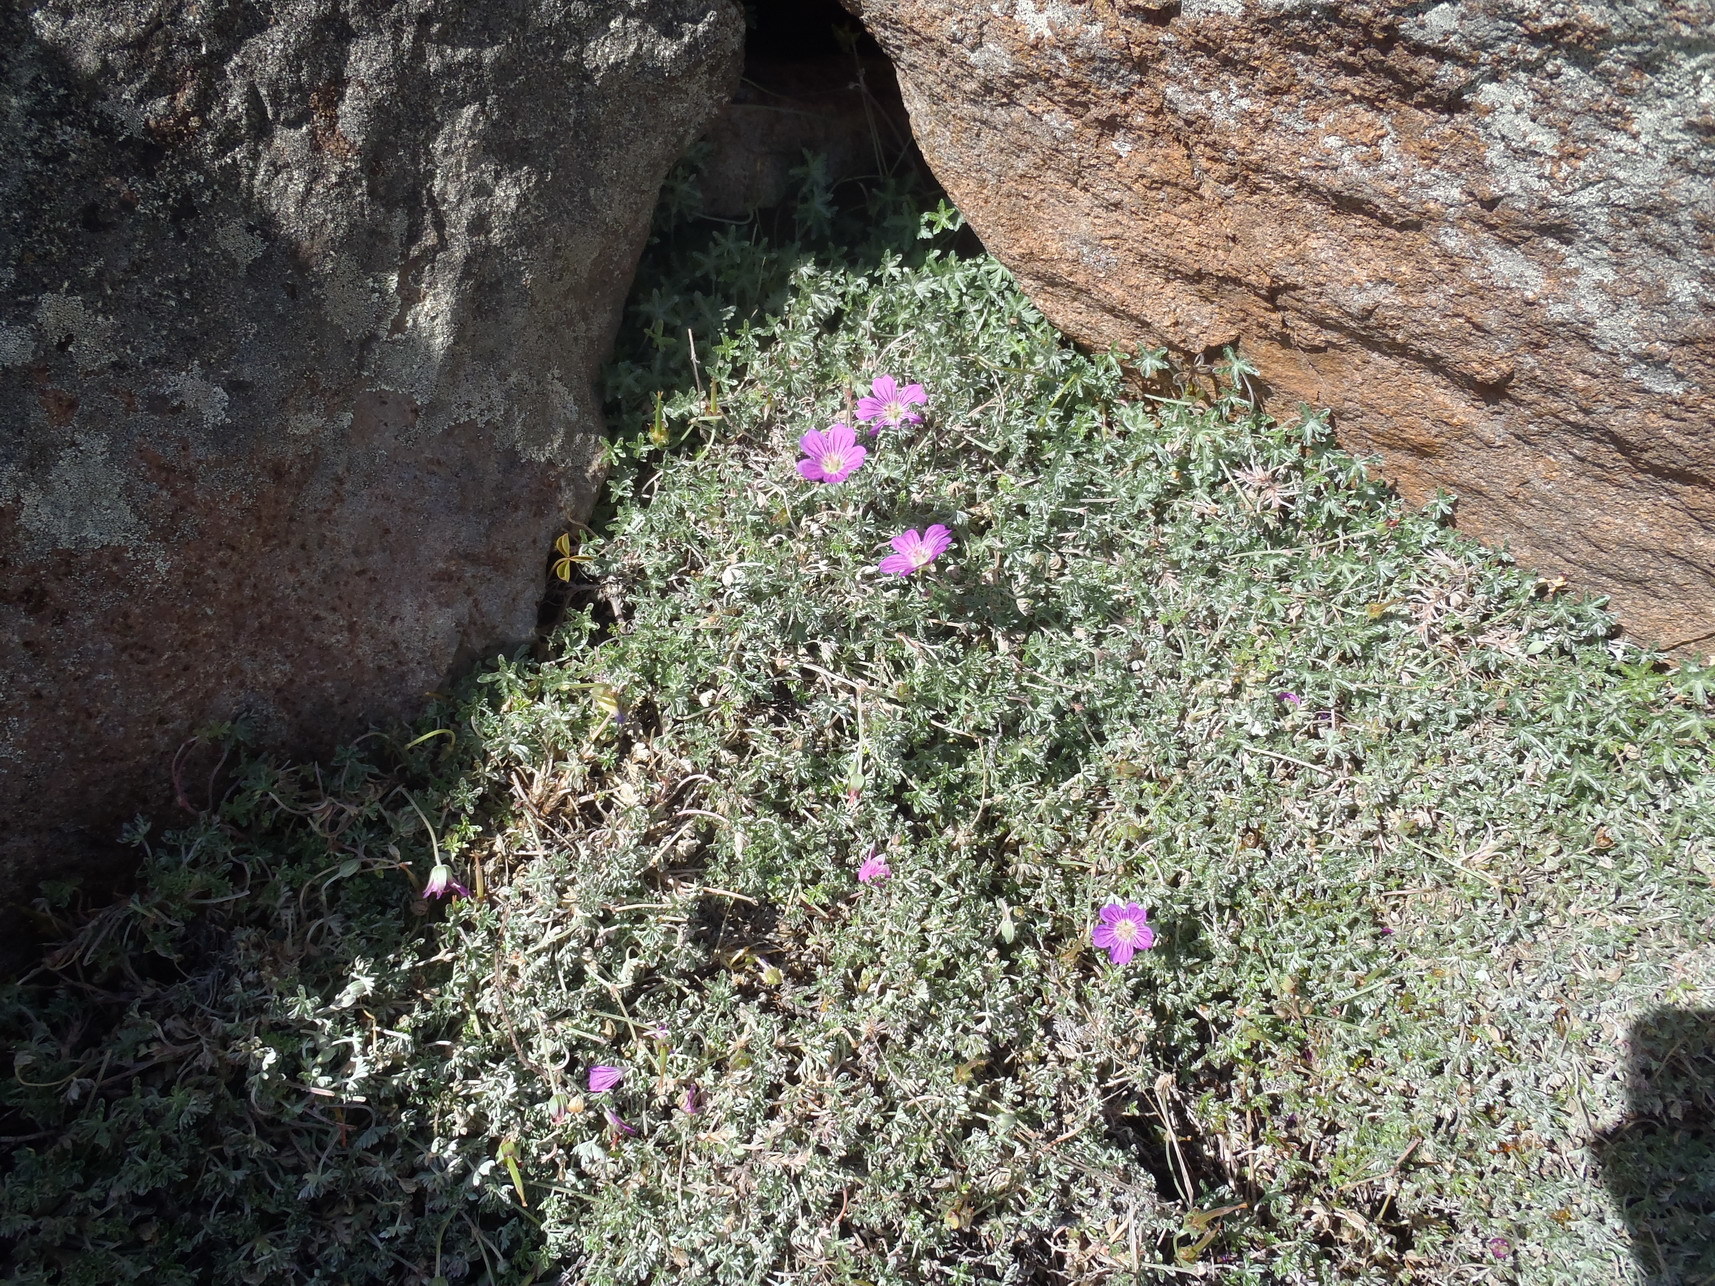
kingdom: Plantae
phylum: Tracheophyta
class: Magnoliopsida
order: Geraniales
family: Geraniaceae
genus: Geranium
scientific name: Geranium harveyi
